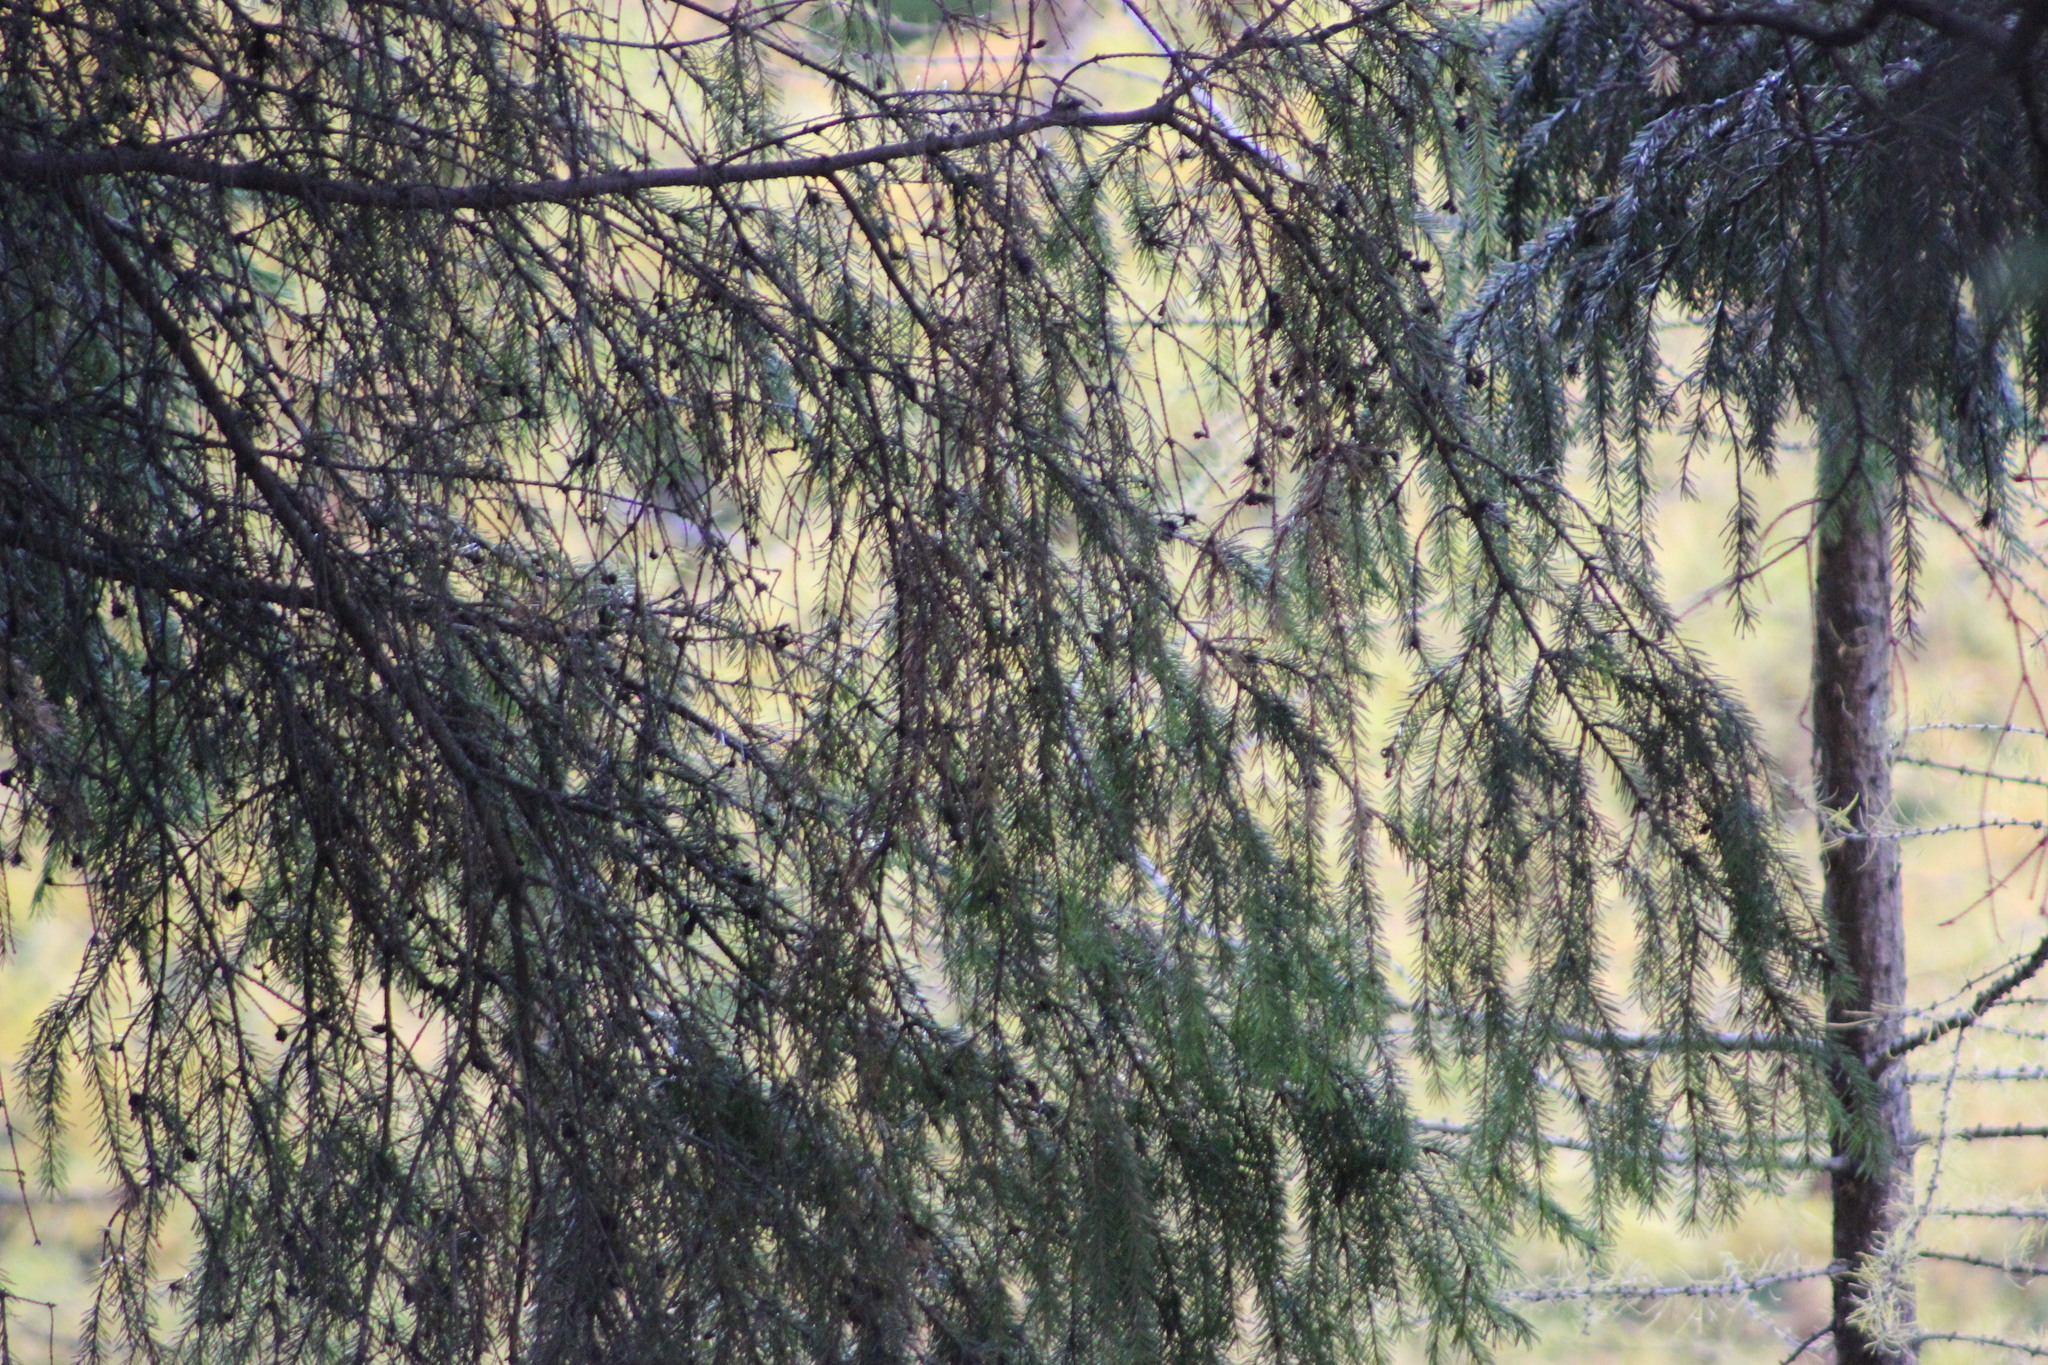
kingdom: Plantae
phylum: Tracheophyta
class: Pinopsida
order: Pinales
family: Pinaceae
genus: Abies
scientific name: Abies sibirica
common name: Siberian fir
